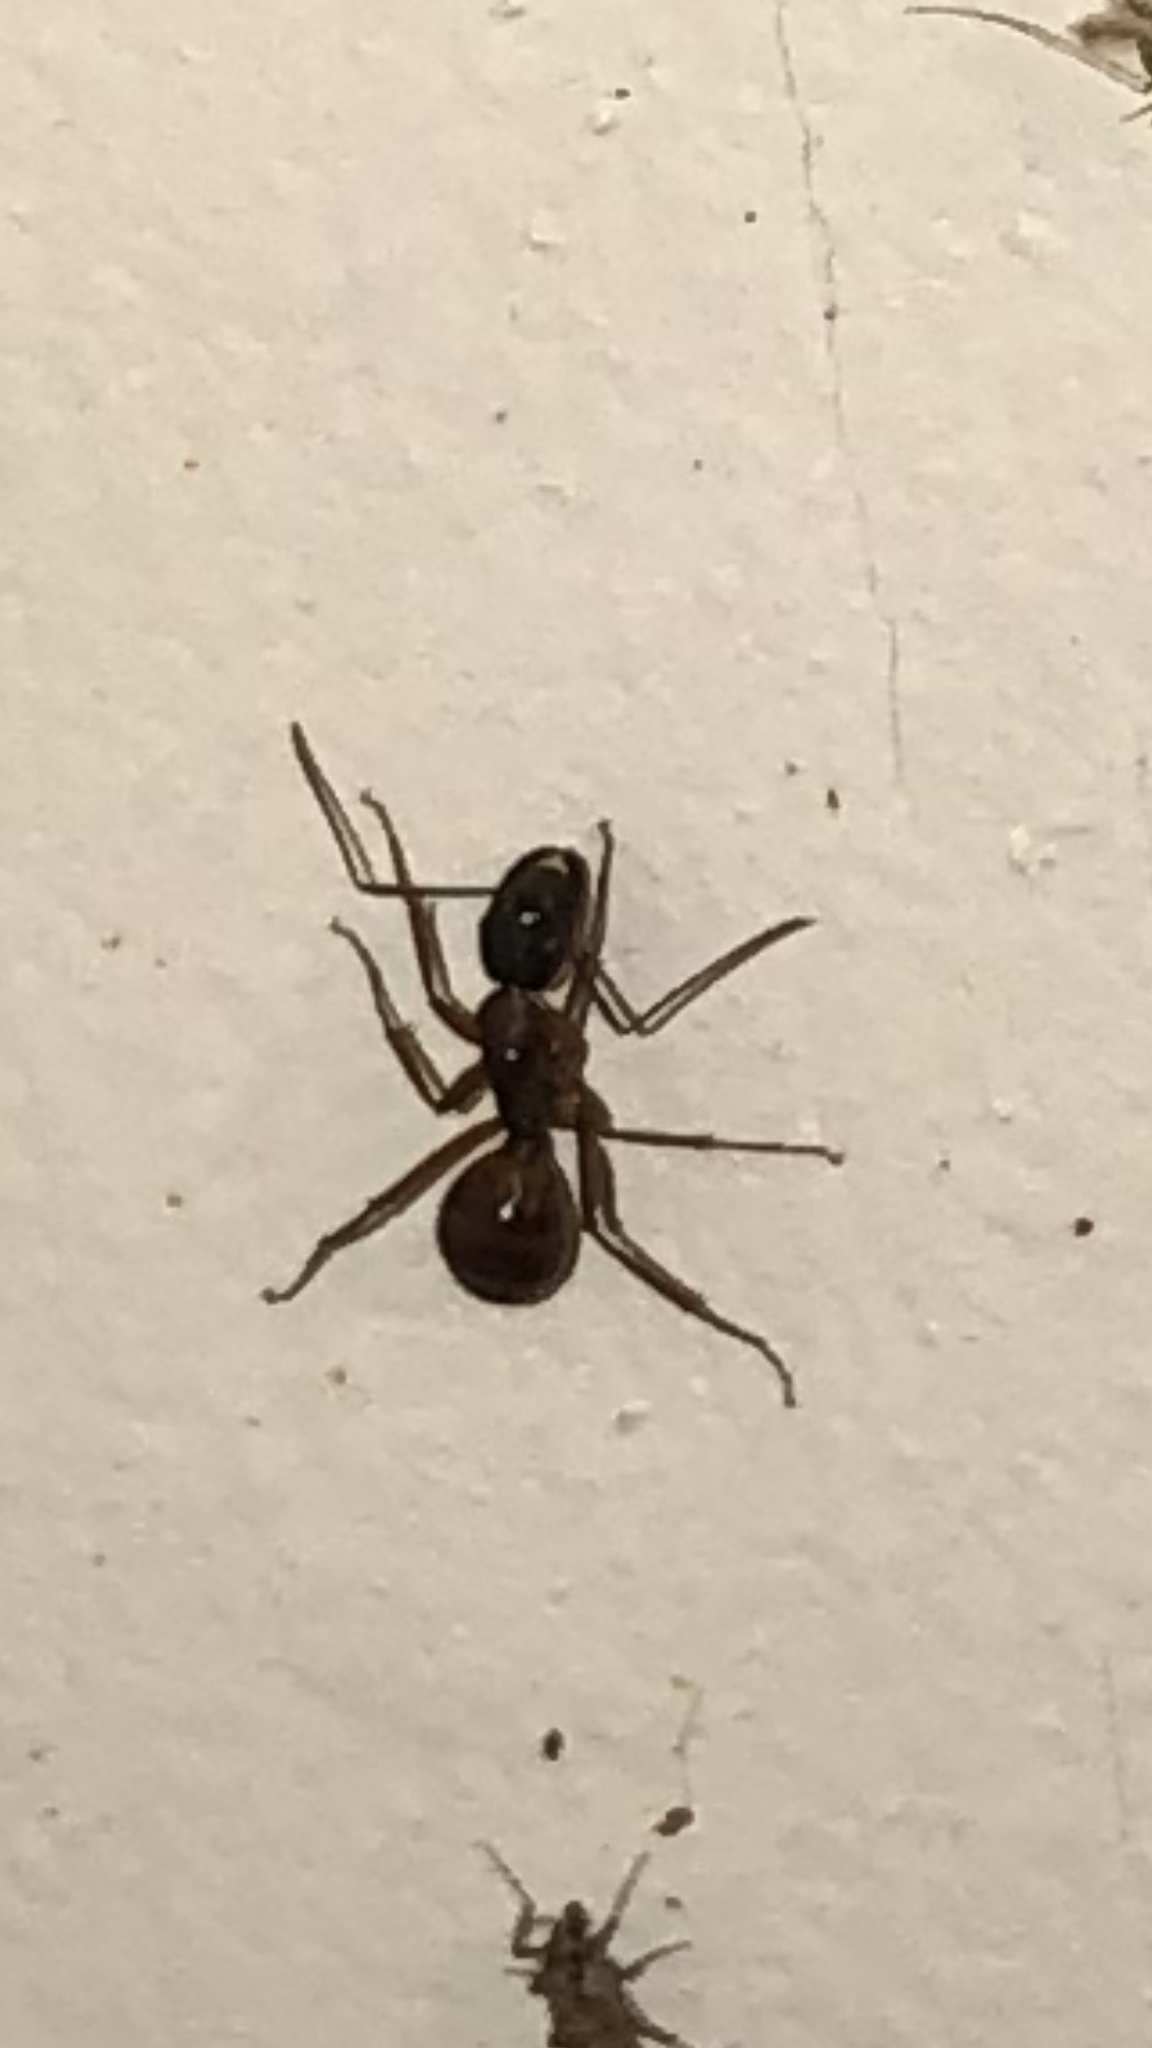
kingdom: Animalia
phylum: Arthropoda
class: Insecta
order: Hymenoptera
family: Formicidae
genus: Camponotus
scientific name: Camponotus americanus
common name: American carpenter ant
